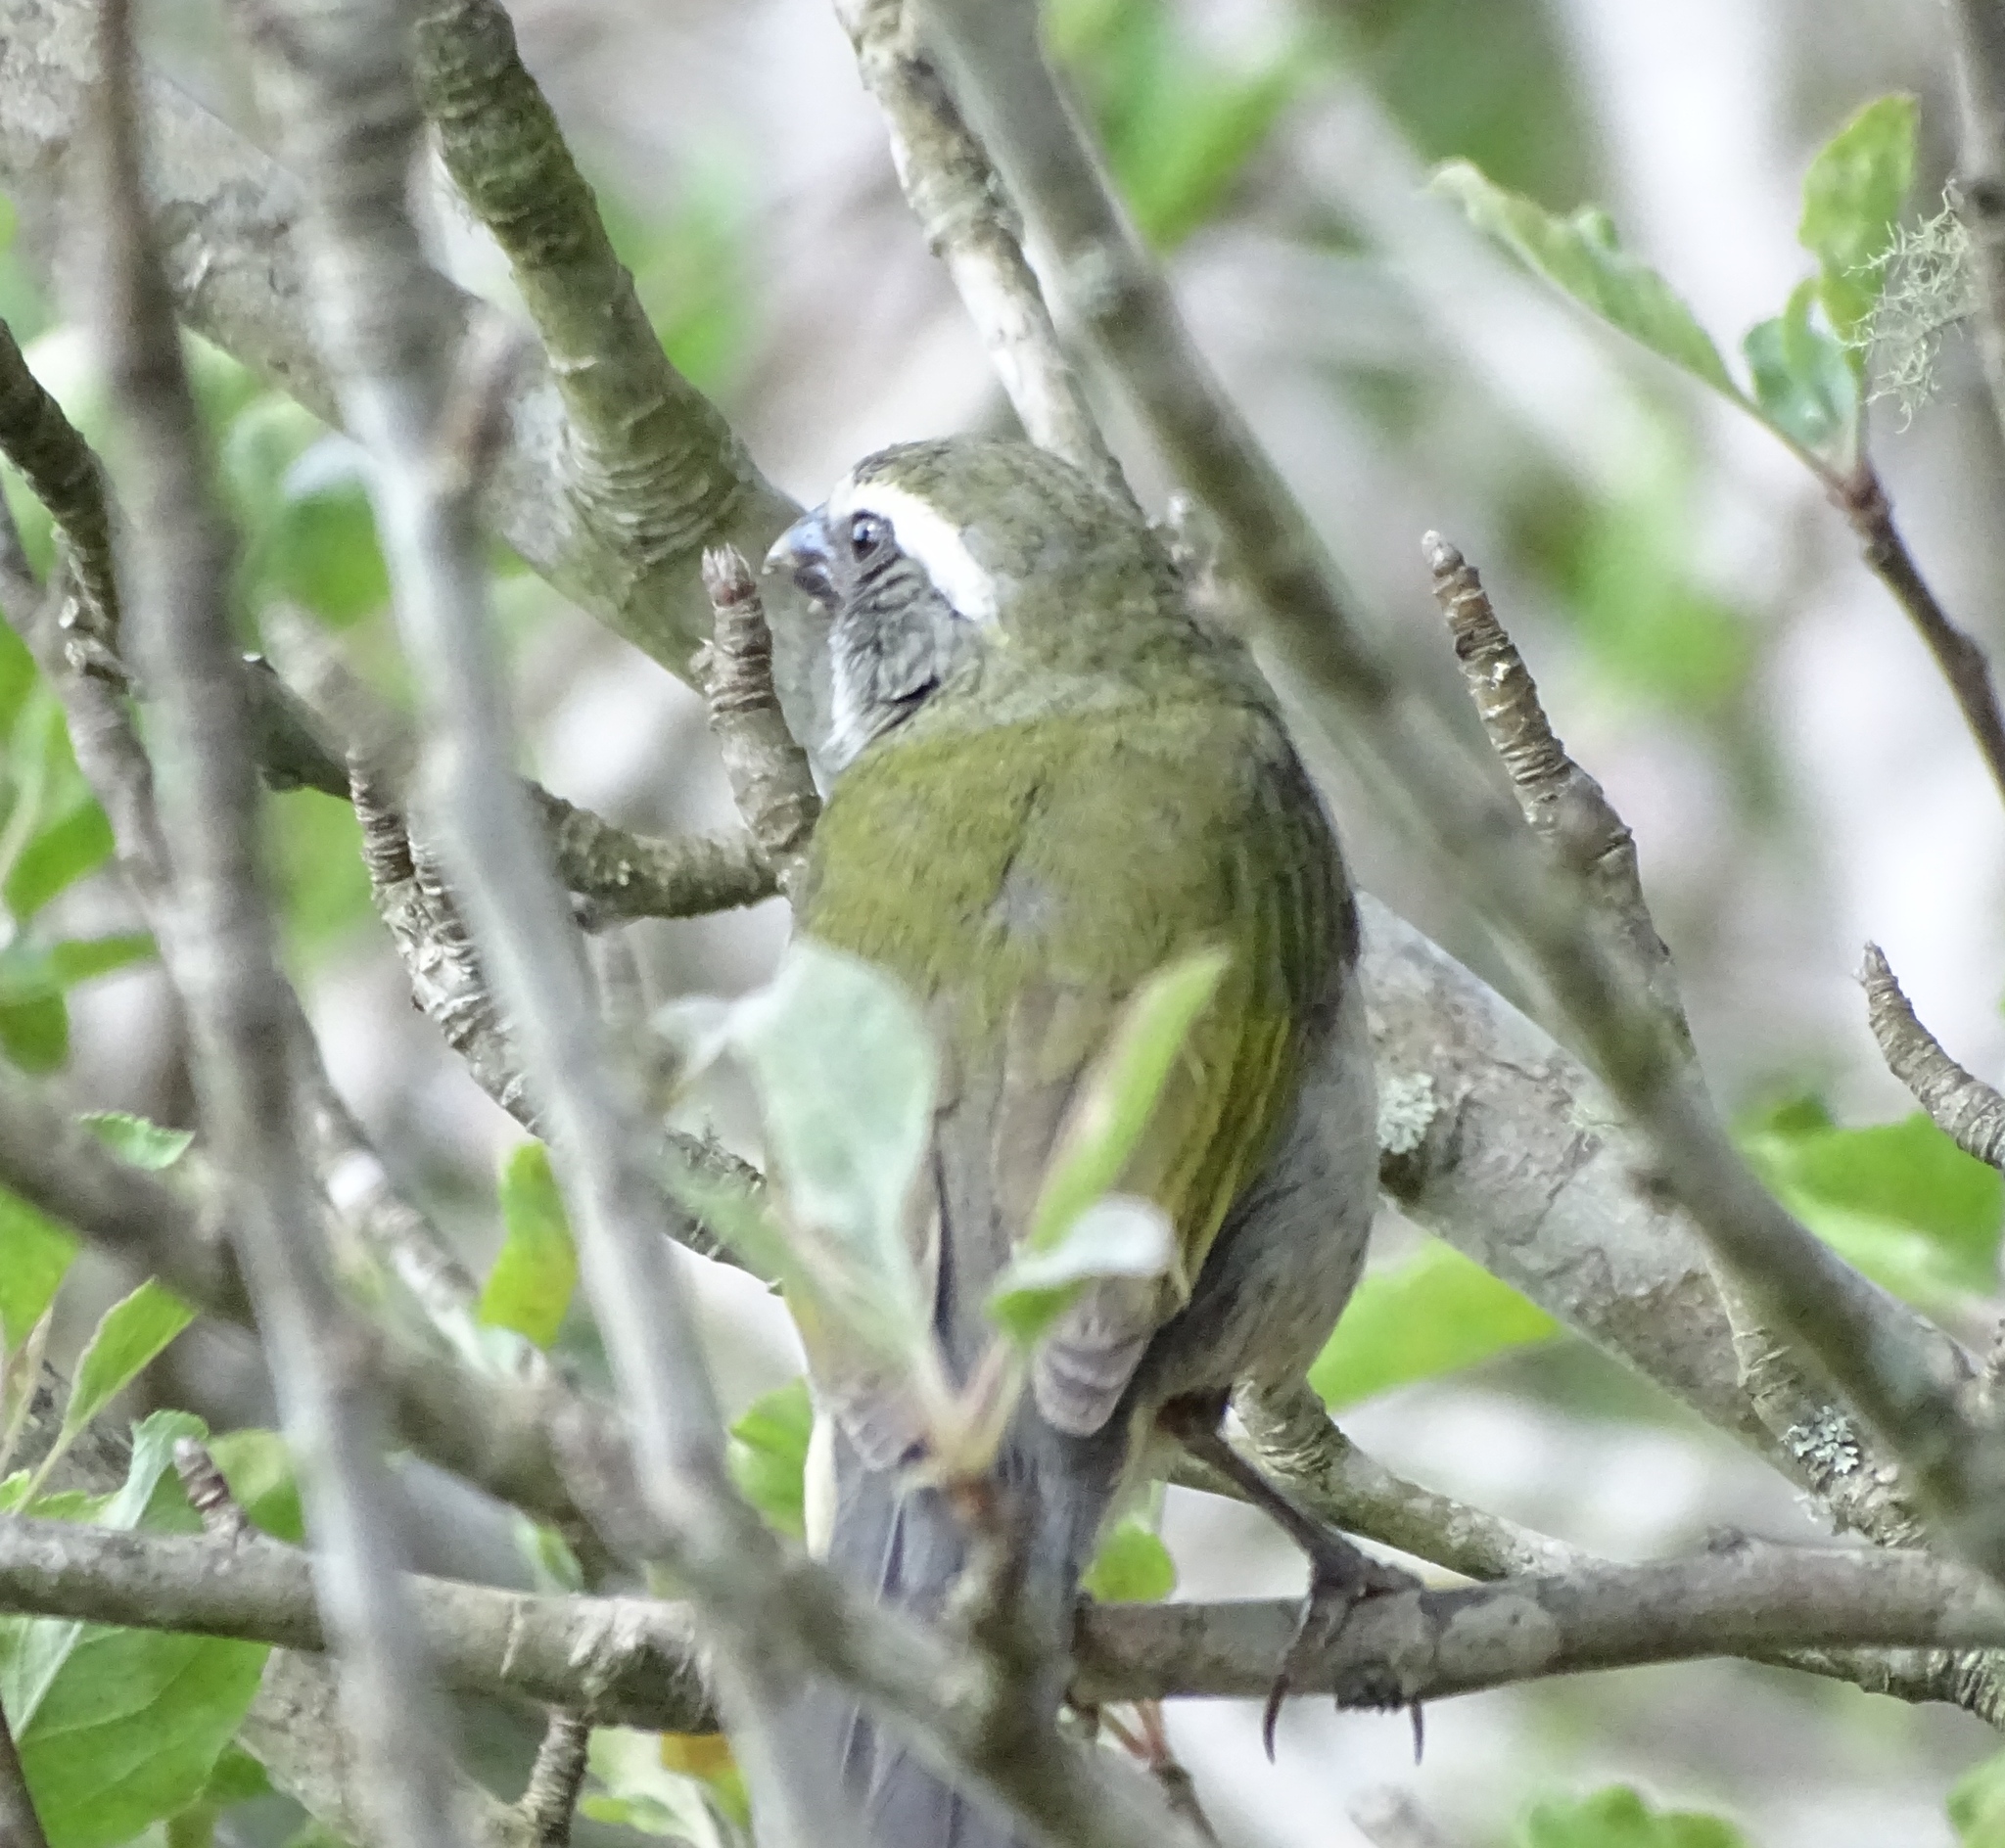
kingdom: Animalia
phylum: Chordata
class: Aves
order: Passeriformes
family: Thraupidae
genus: Saltator
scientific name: Saltator similis
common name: Green-winged saltator
